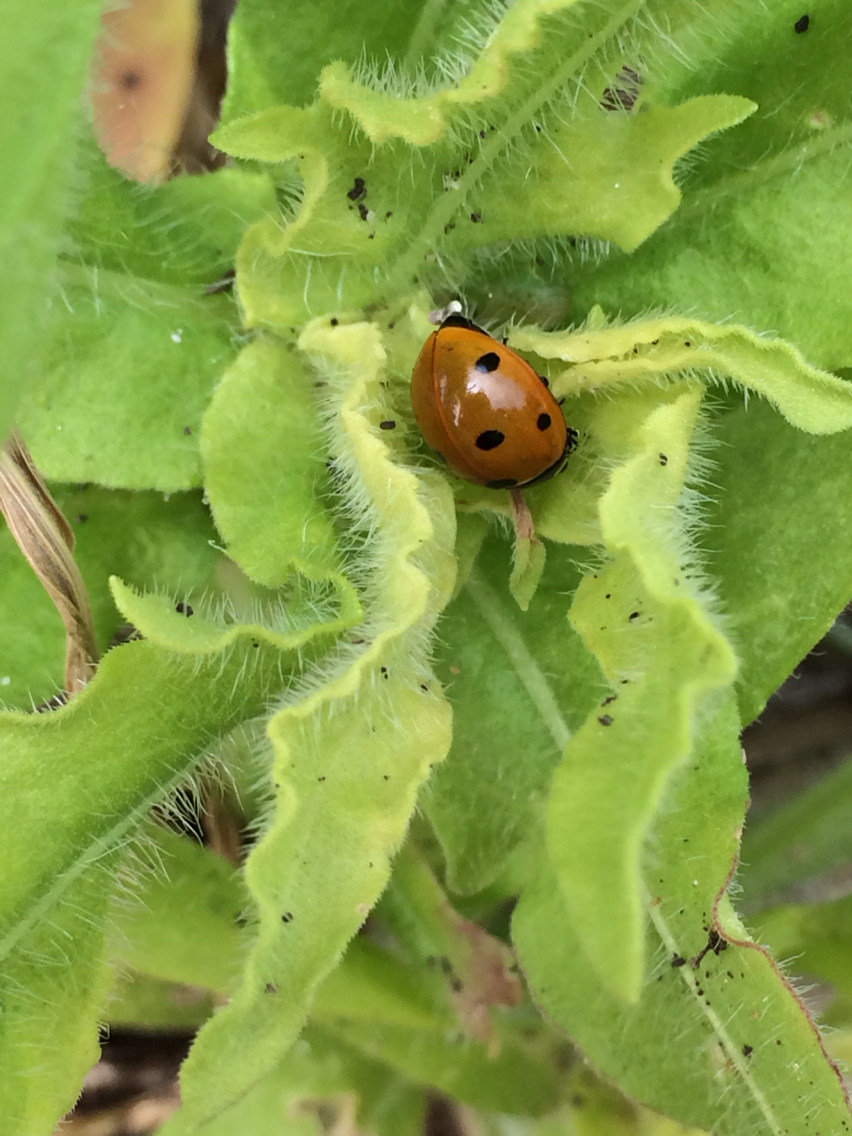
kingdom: Animalia
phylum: Arthropoda
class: Insecta
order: Coleoptera
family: Coccinellidae
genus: Coccinella
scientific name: Coccinella septempunctata
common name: Sevenspotted lady beetle
